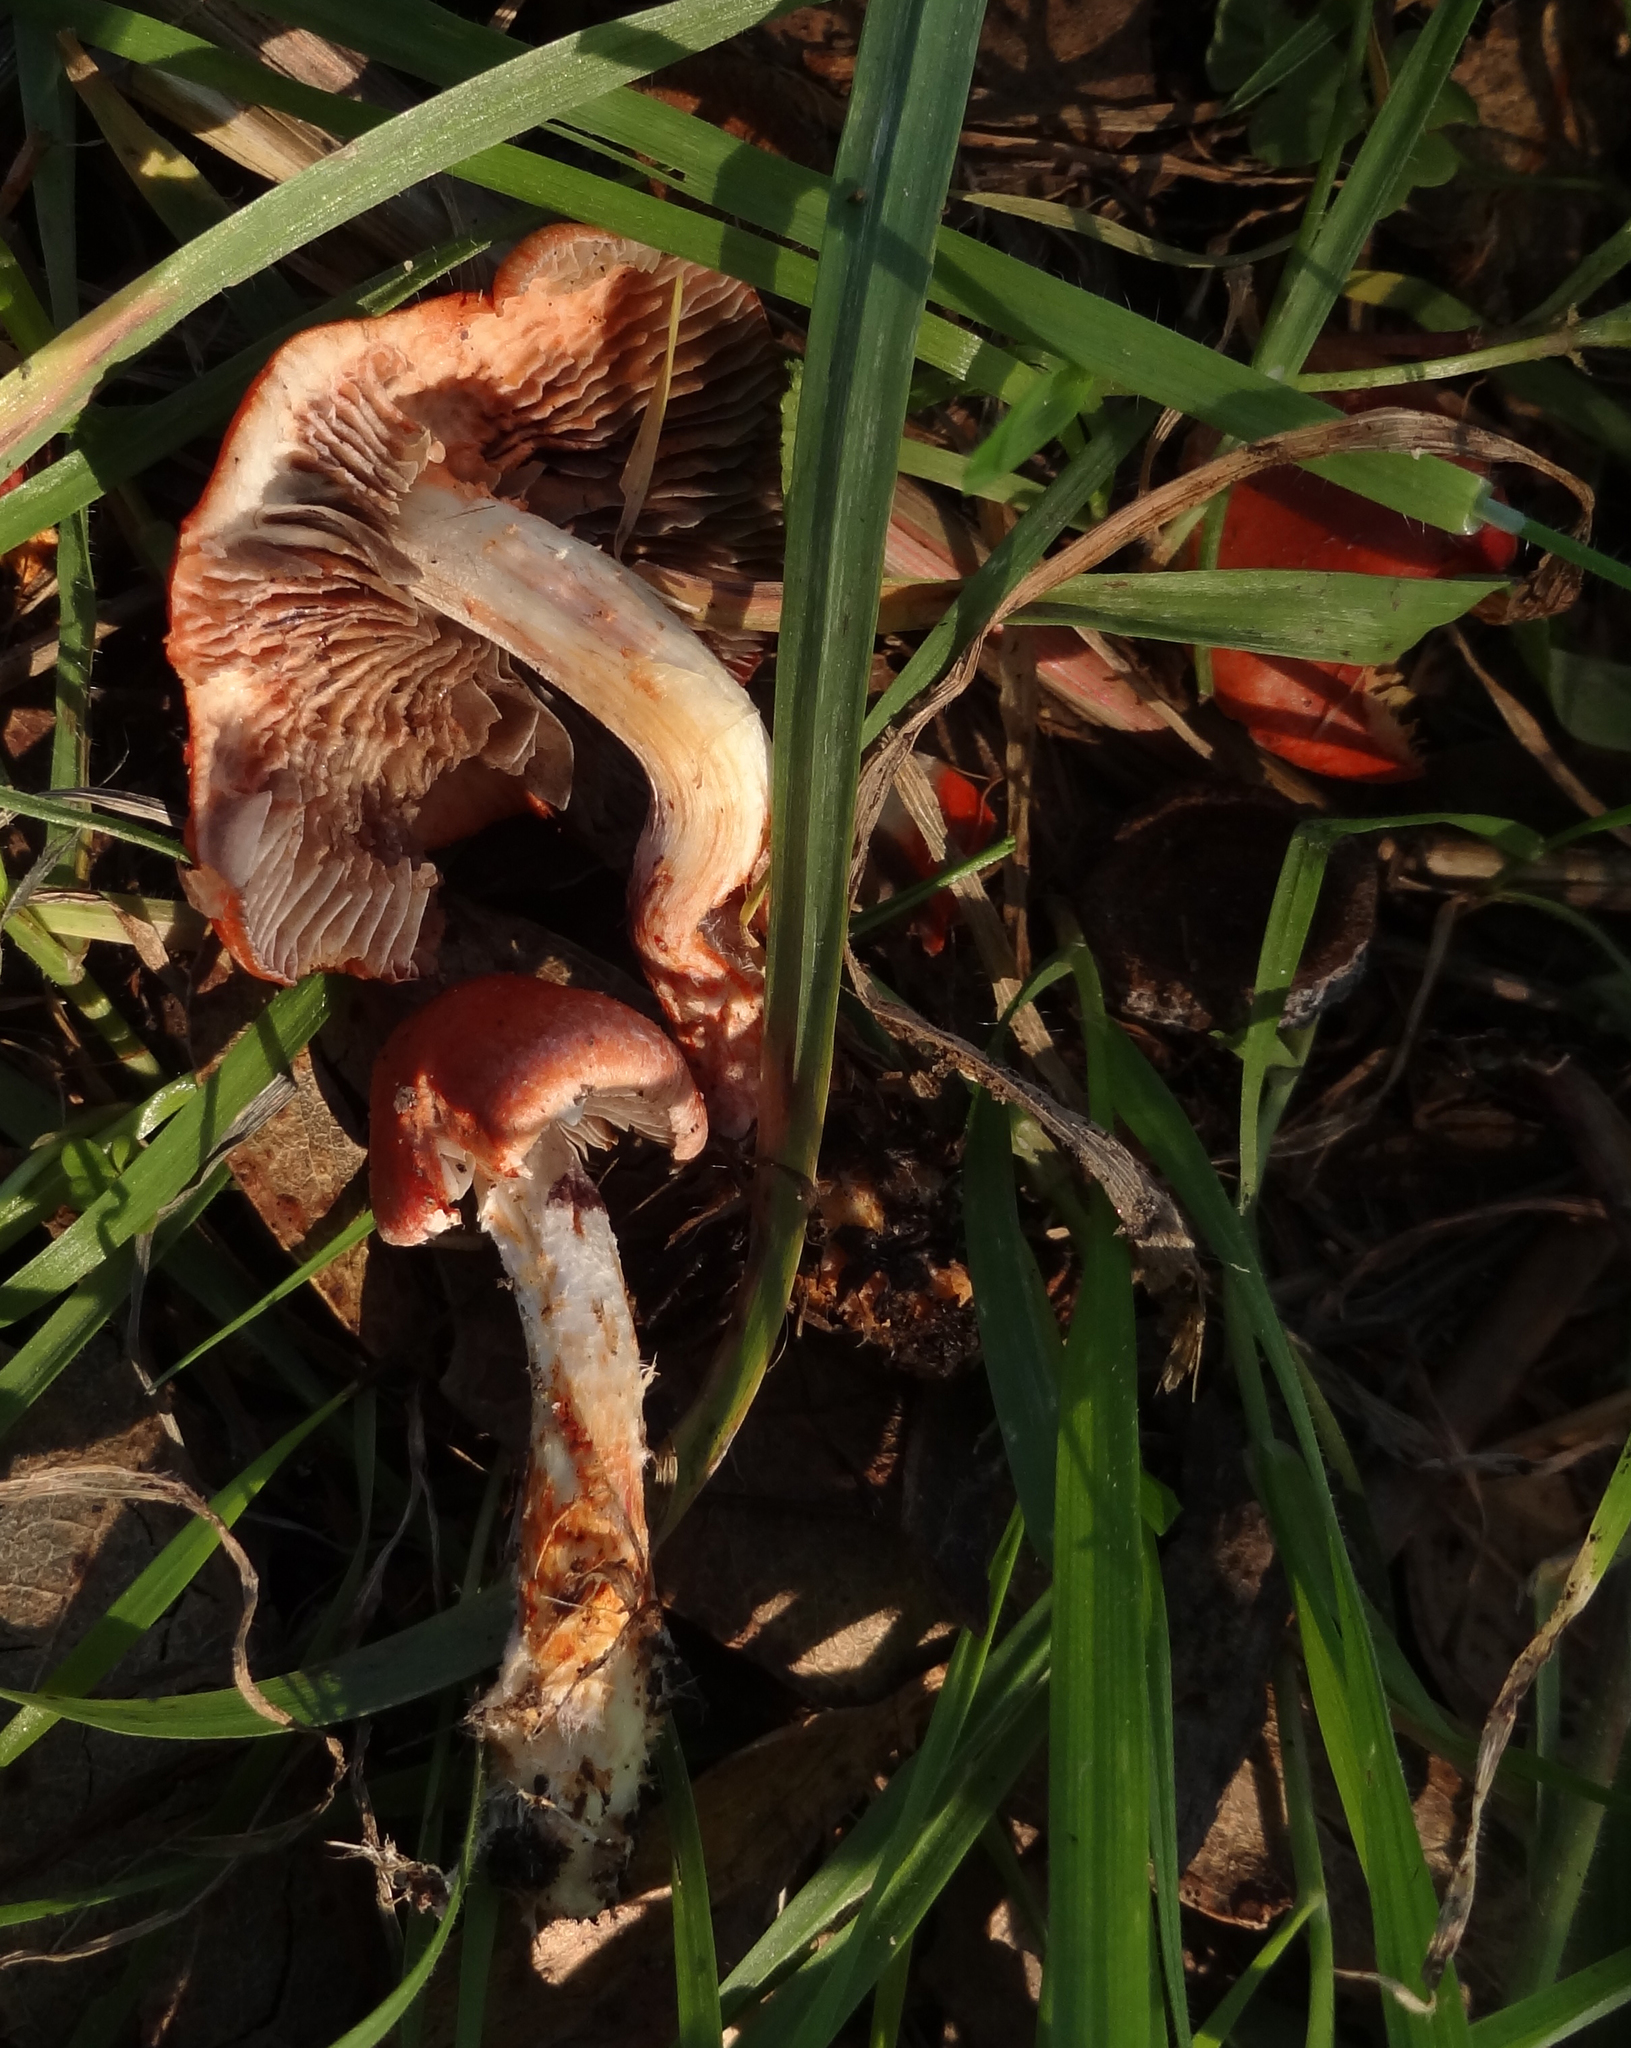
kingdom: Fungi
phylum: Basidiomycota
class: Agaricomycetes
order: Agaricales
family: Strophariaceae
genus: Leratiomyces
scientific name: Leratiomyces ceres
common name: Redlead roundhead
